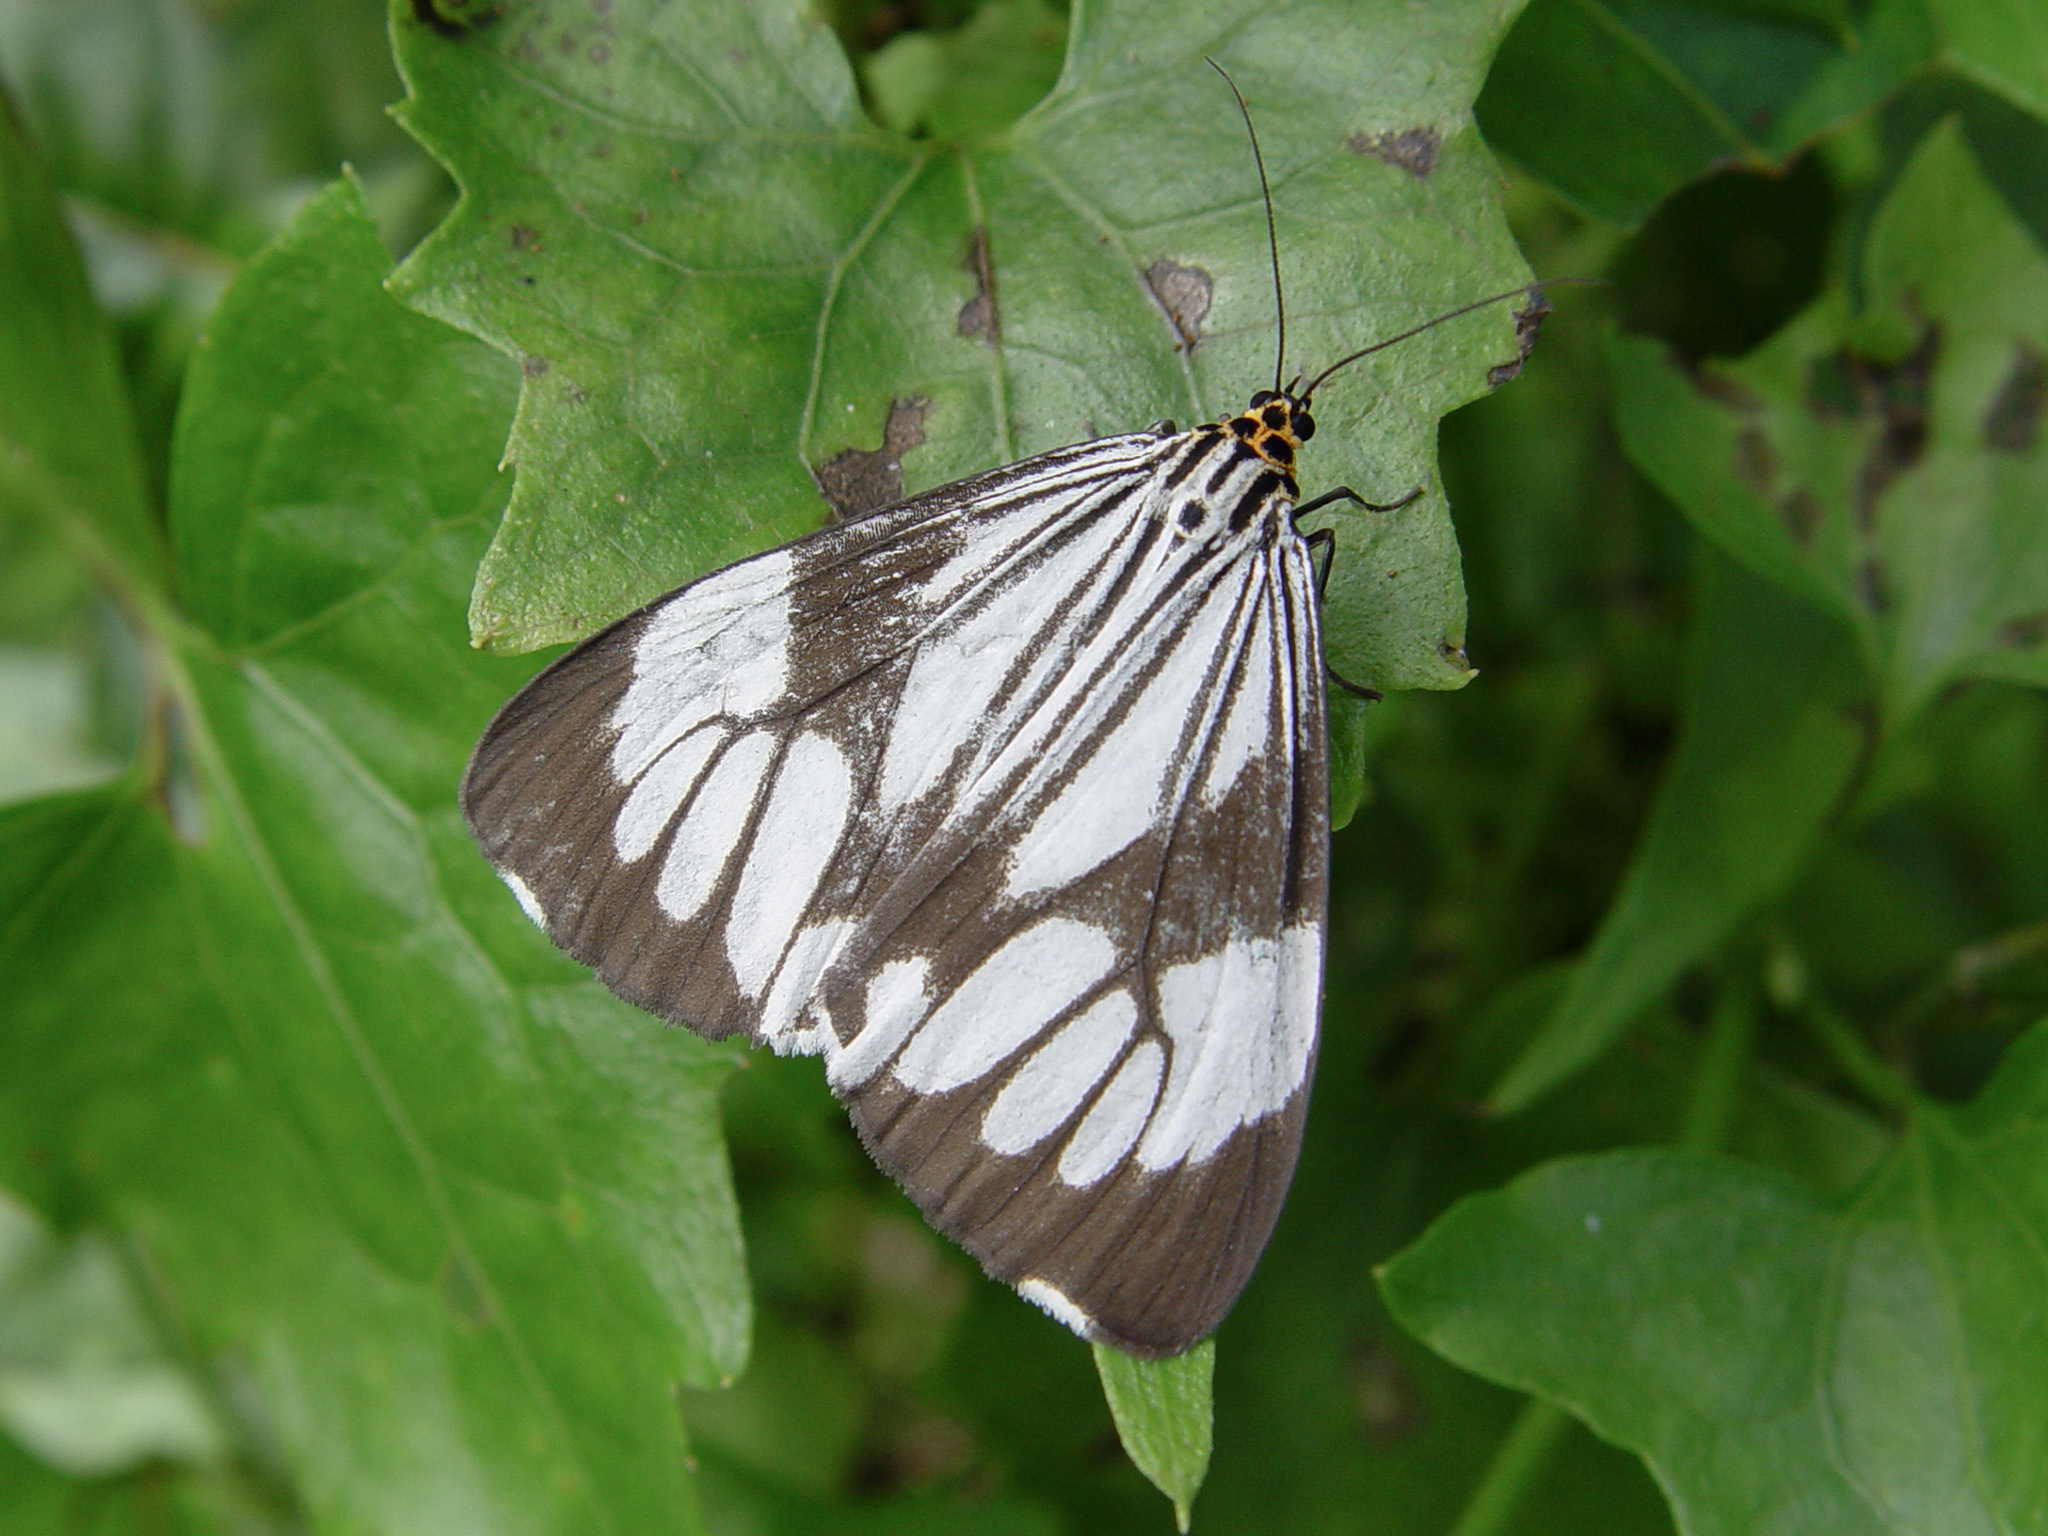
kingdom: Animalia
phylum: Arthropoda
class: Insecta
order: Lepidoptera
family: Erebidae
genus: Nyctemera
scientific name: Nyctemera coleta
